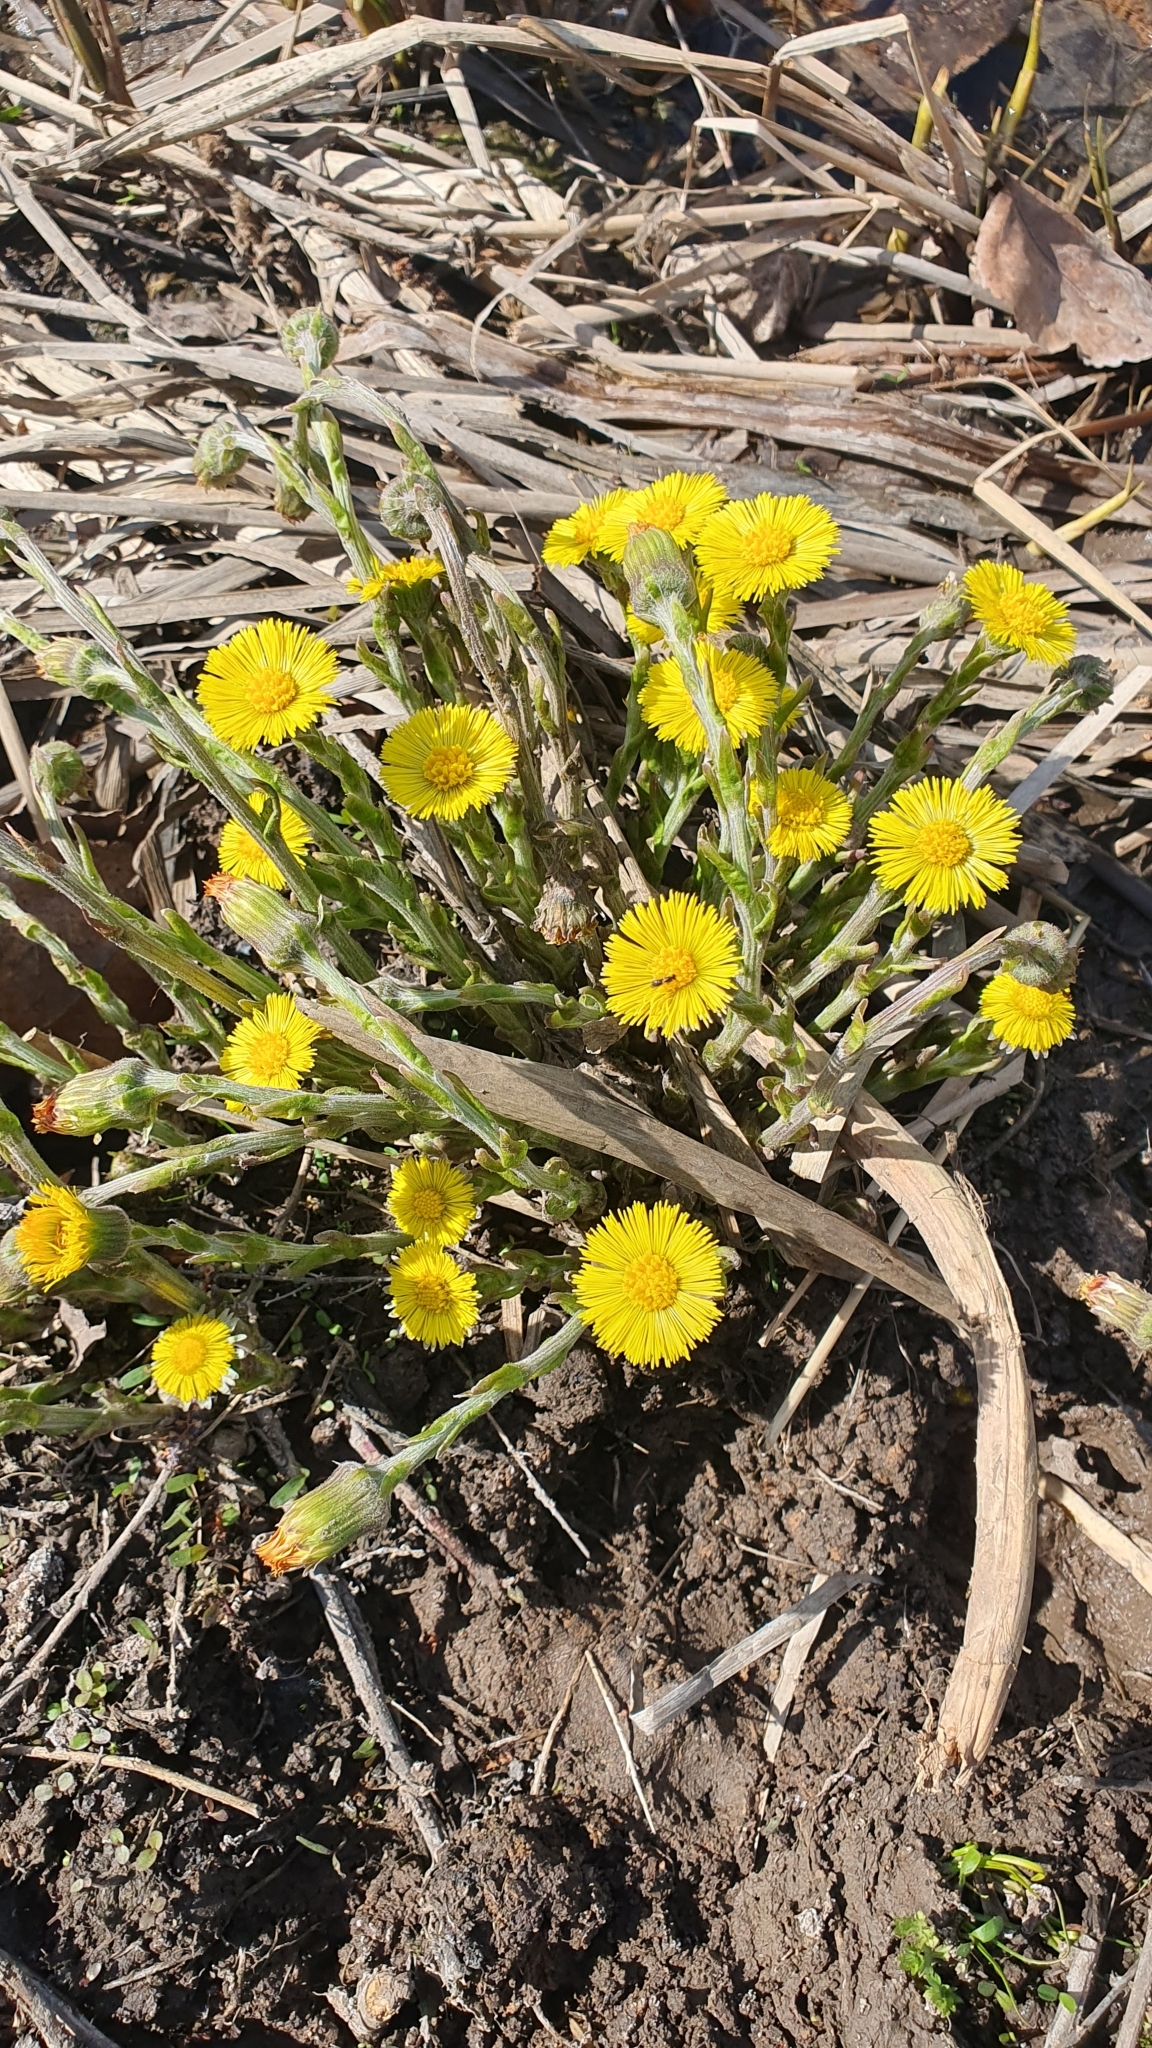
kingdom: Plantae
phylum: Tracheophyta
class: Magnoliopsida
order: Asterales
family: Asteraceae
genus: Tussilago
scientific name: Tussilago farfara
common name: Coltsfoot
